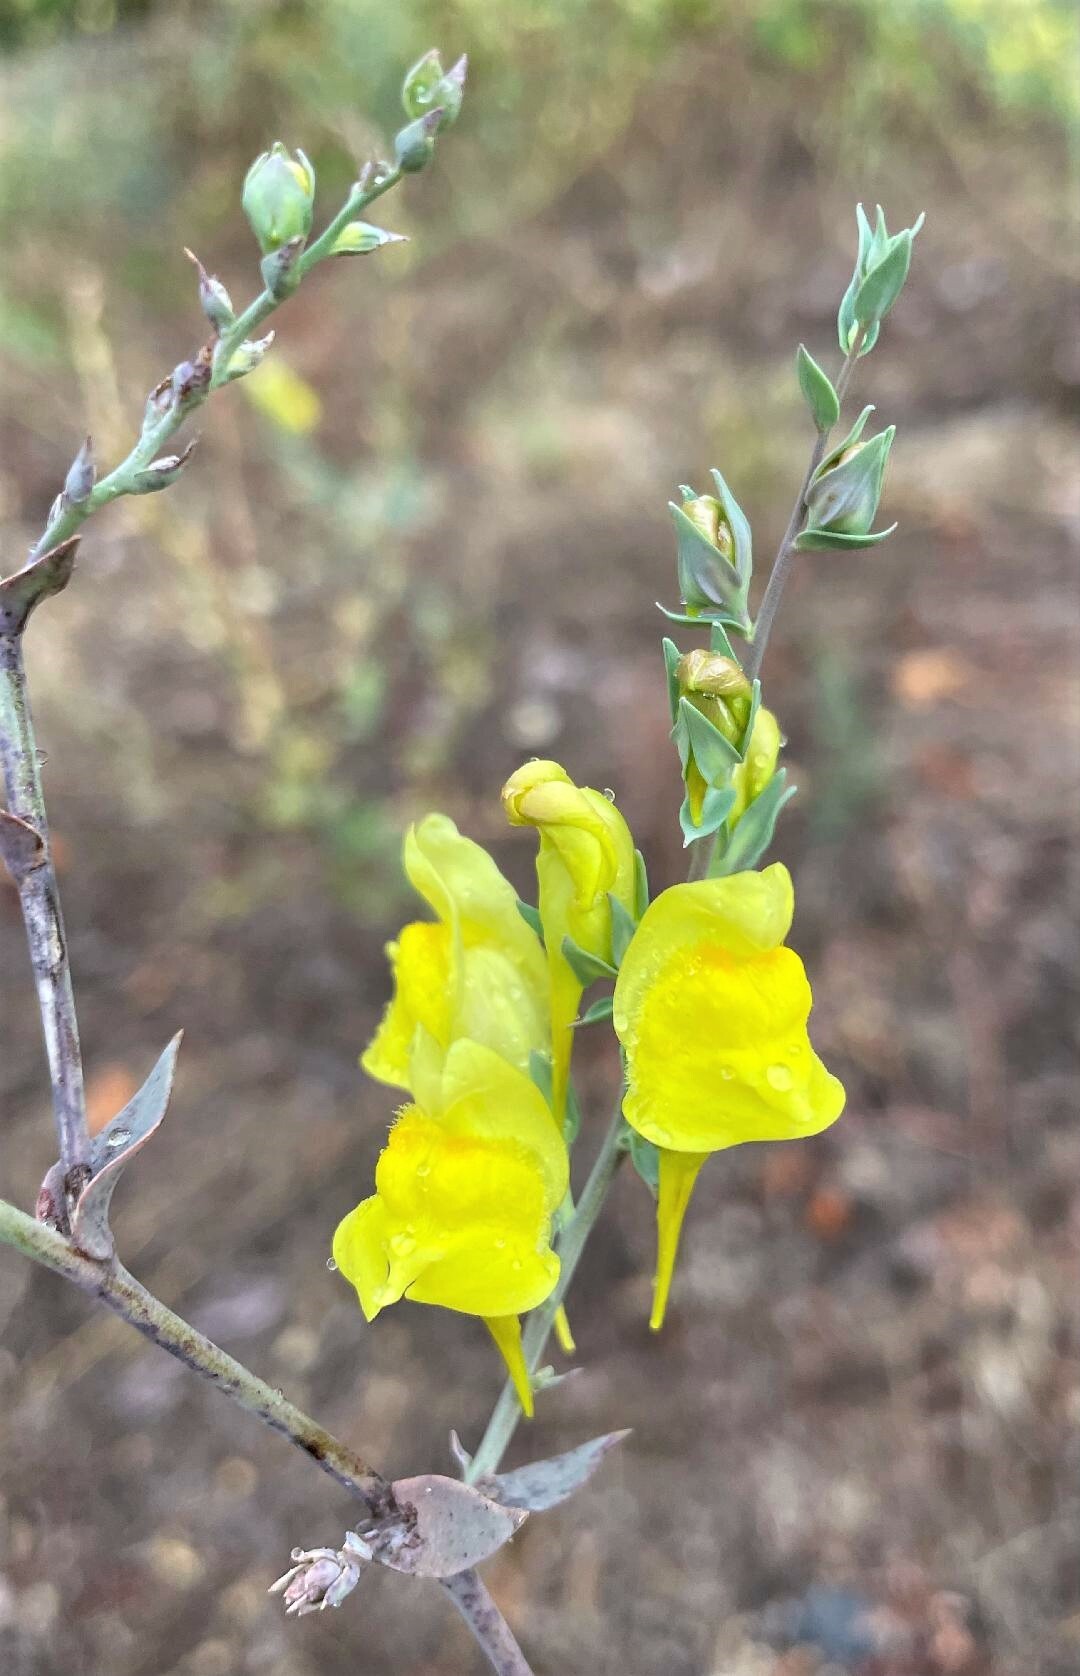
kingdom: Plantae
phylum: Tracheophyta
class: Magnoliopsida
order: Lamiales
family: Plantaginaceae
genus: Linaria
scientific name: Linaria dalmatica
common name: Dalmatian toadflax
